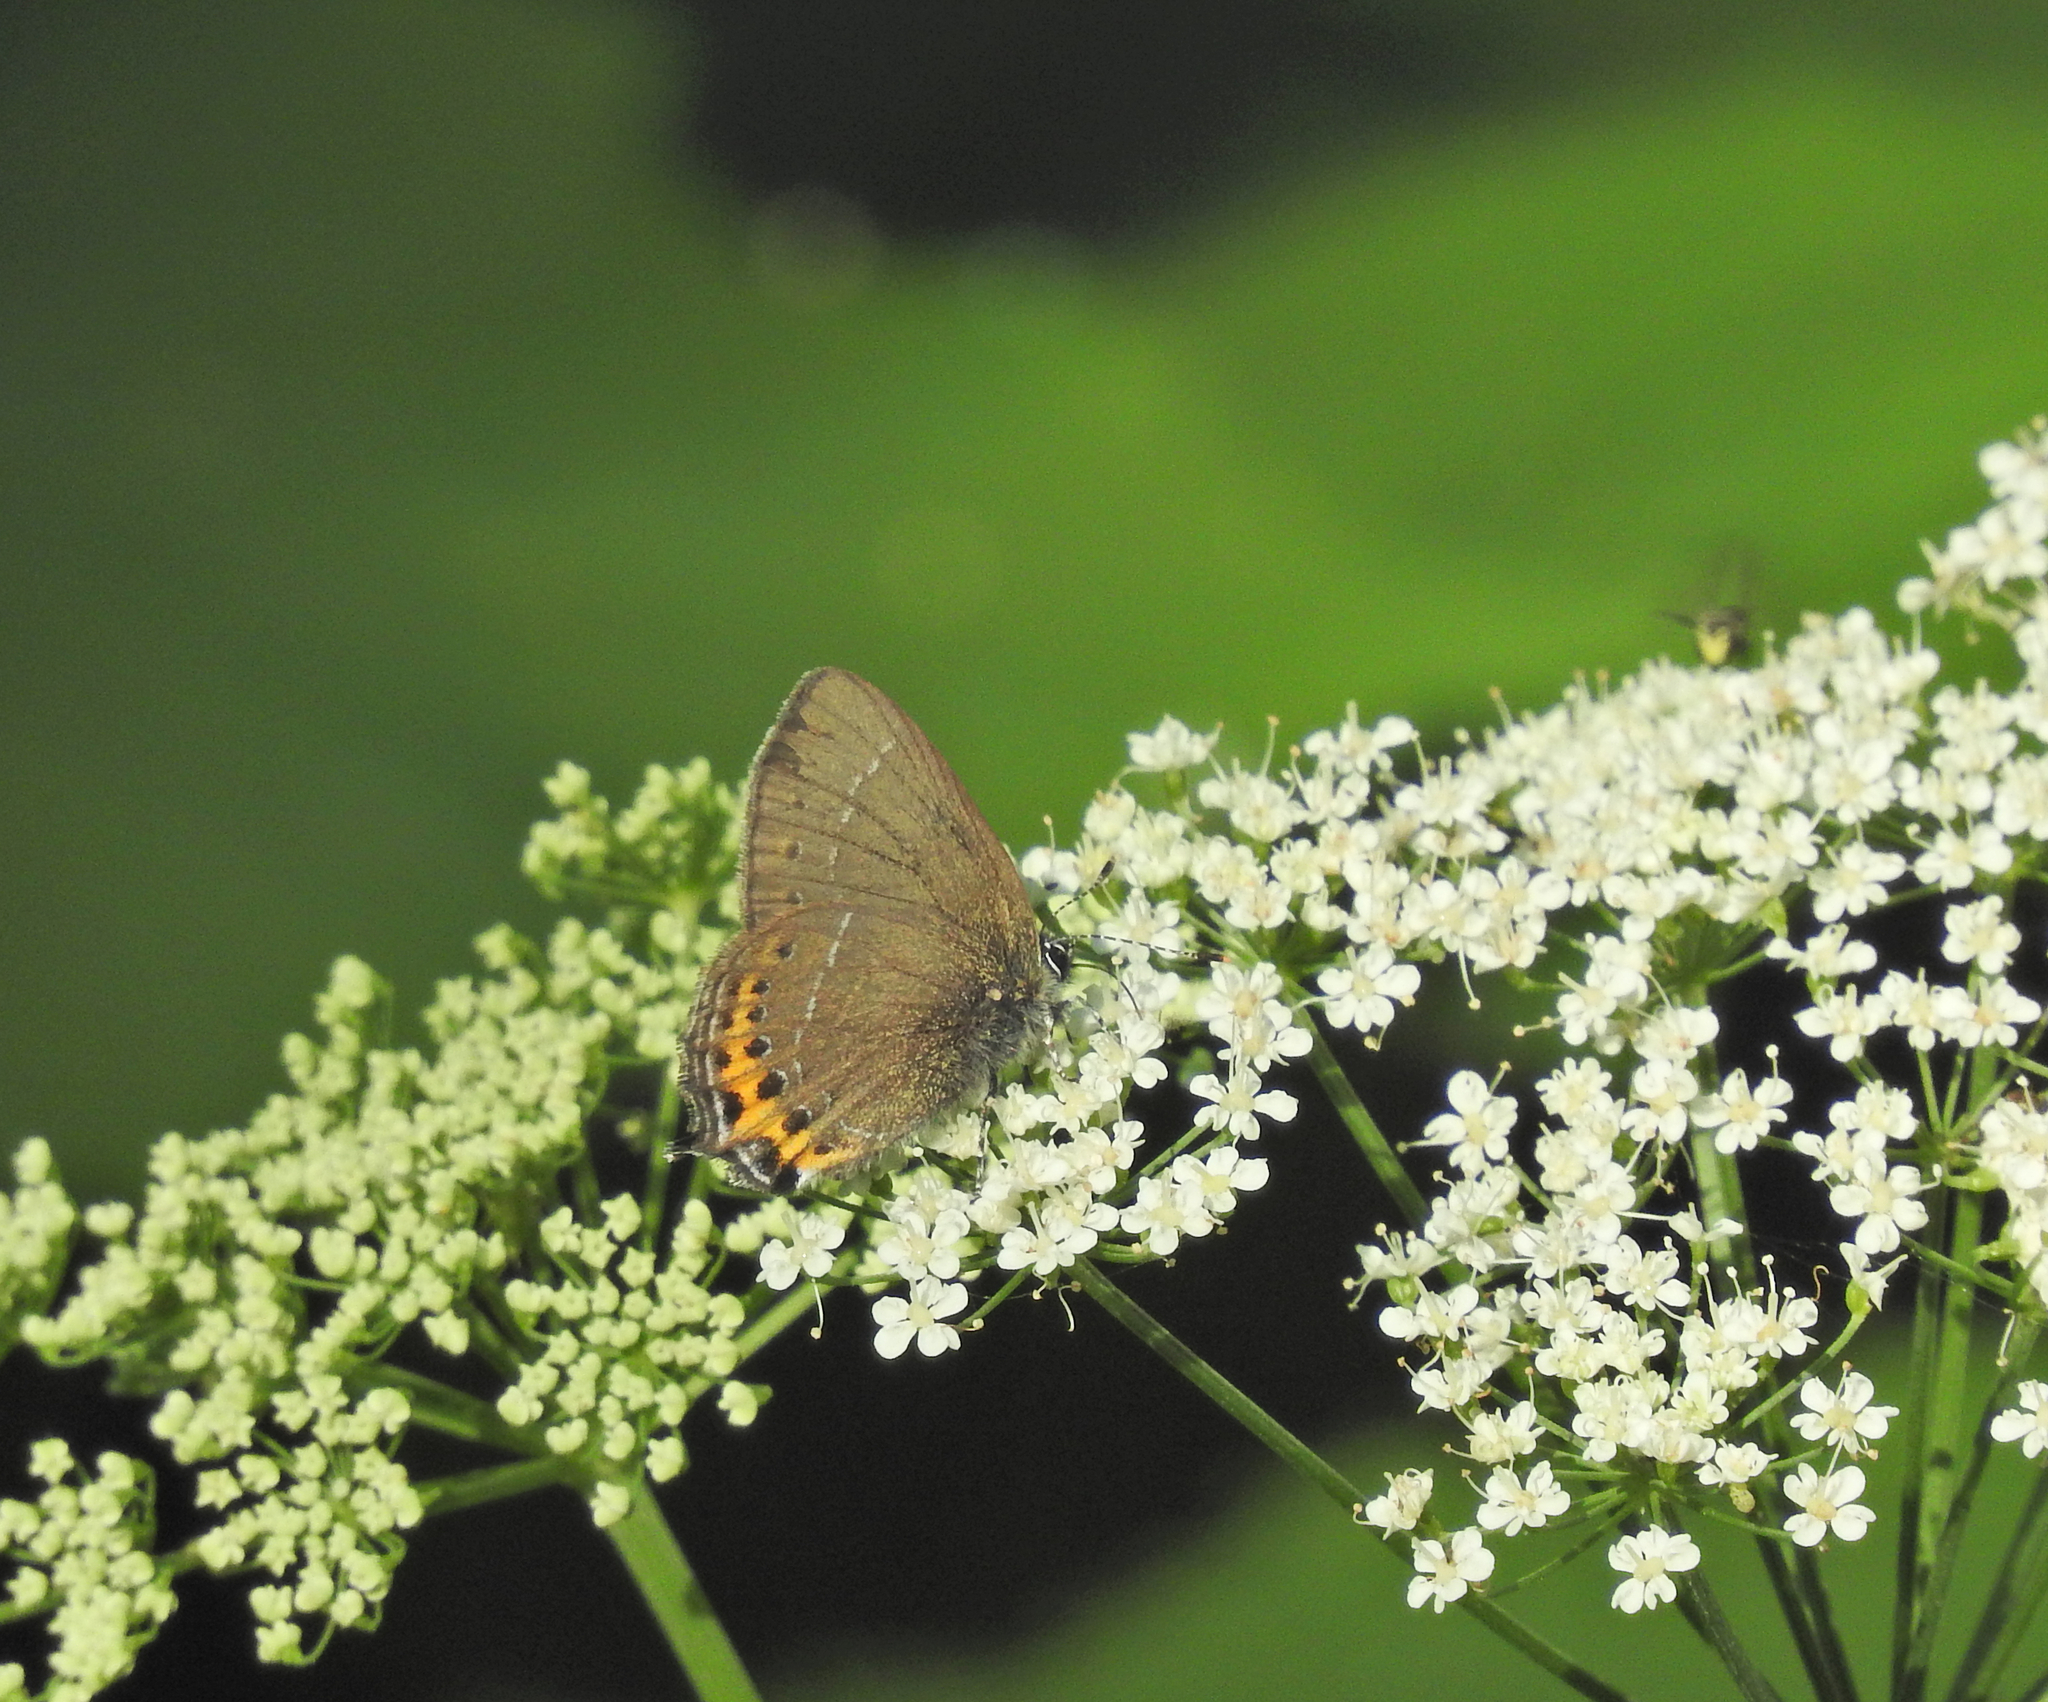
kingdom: Animalia
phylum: Arthropoda
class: Insecta
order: Lepidoptera
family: Lycaenidae
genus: Fixsenia
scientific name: Fixsenia pruni
